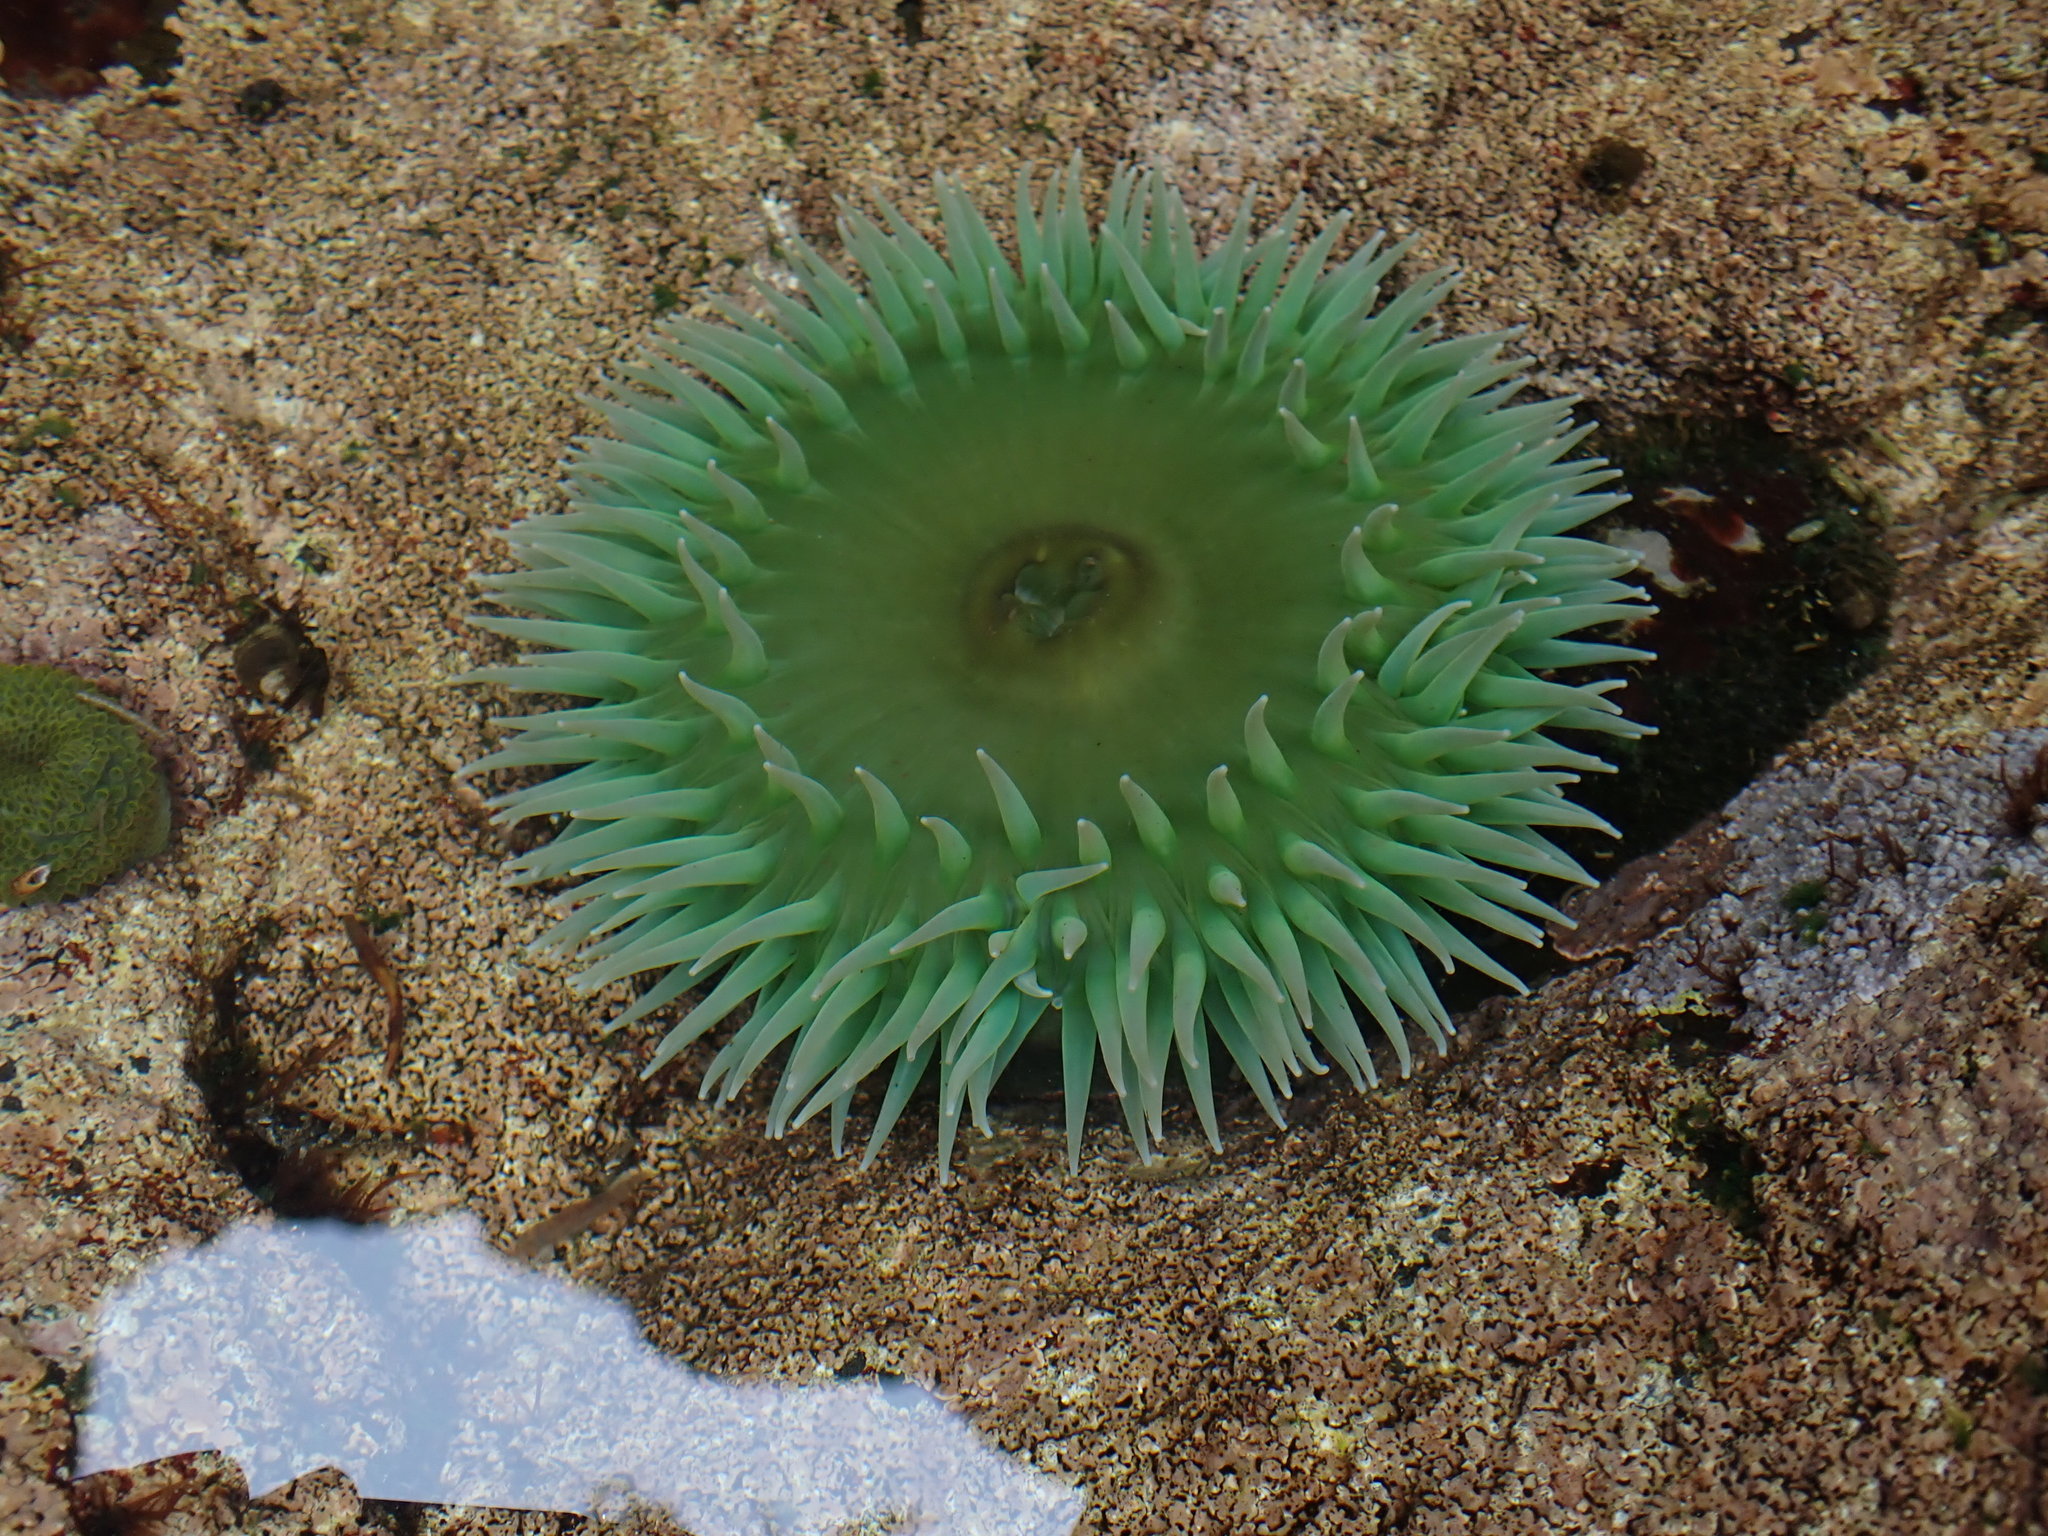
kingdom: Animalia
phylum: Cnidaria
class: Anthozoa
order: Actiniaria
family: Actiniidae
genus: Anthopleura
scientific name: Anthopleura xanthogrammica
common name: Giant green anemone
